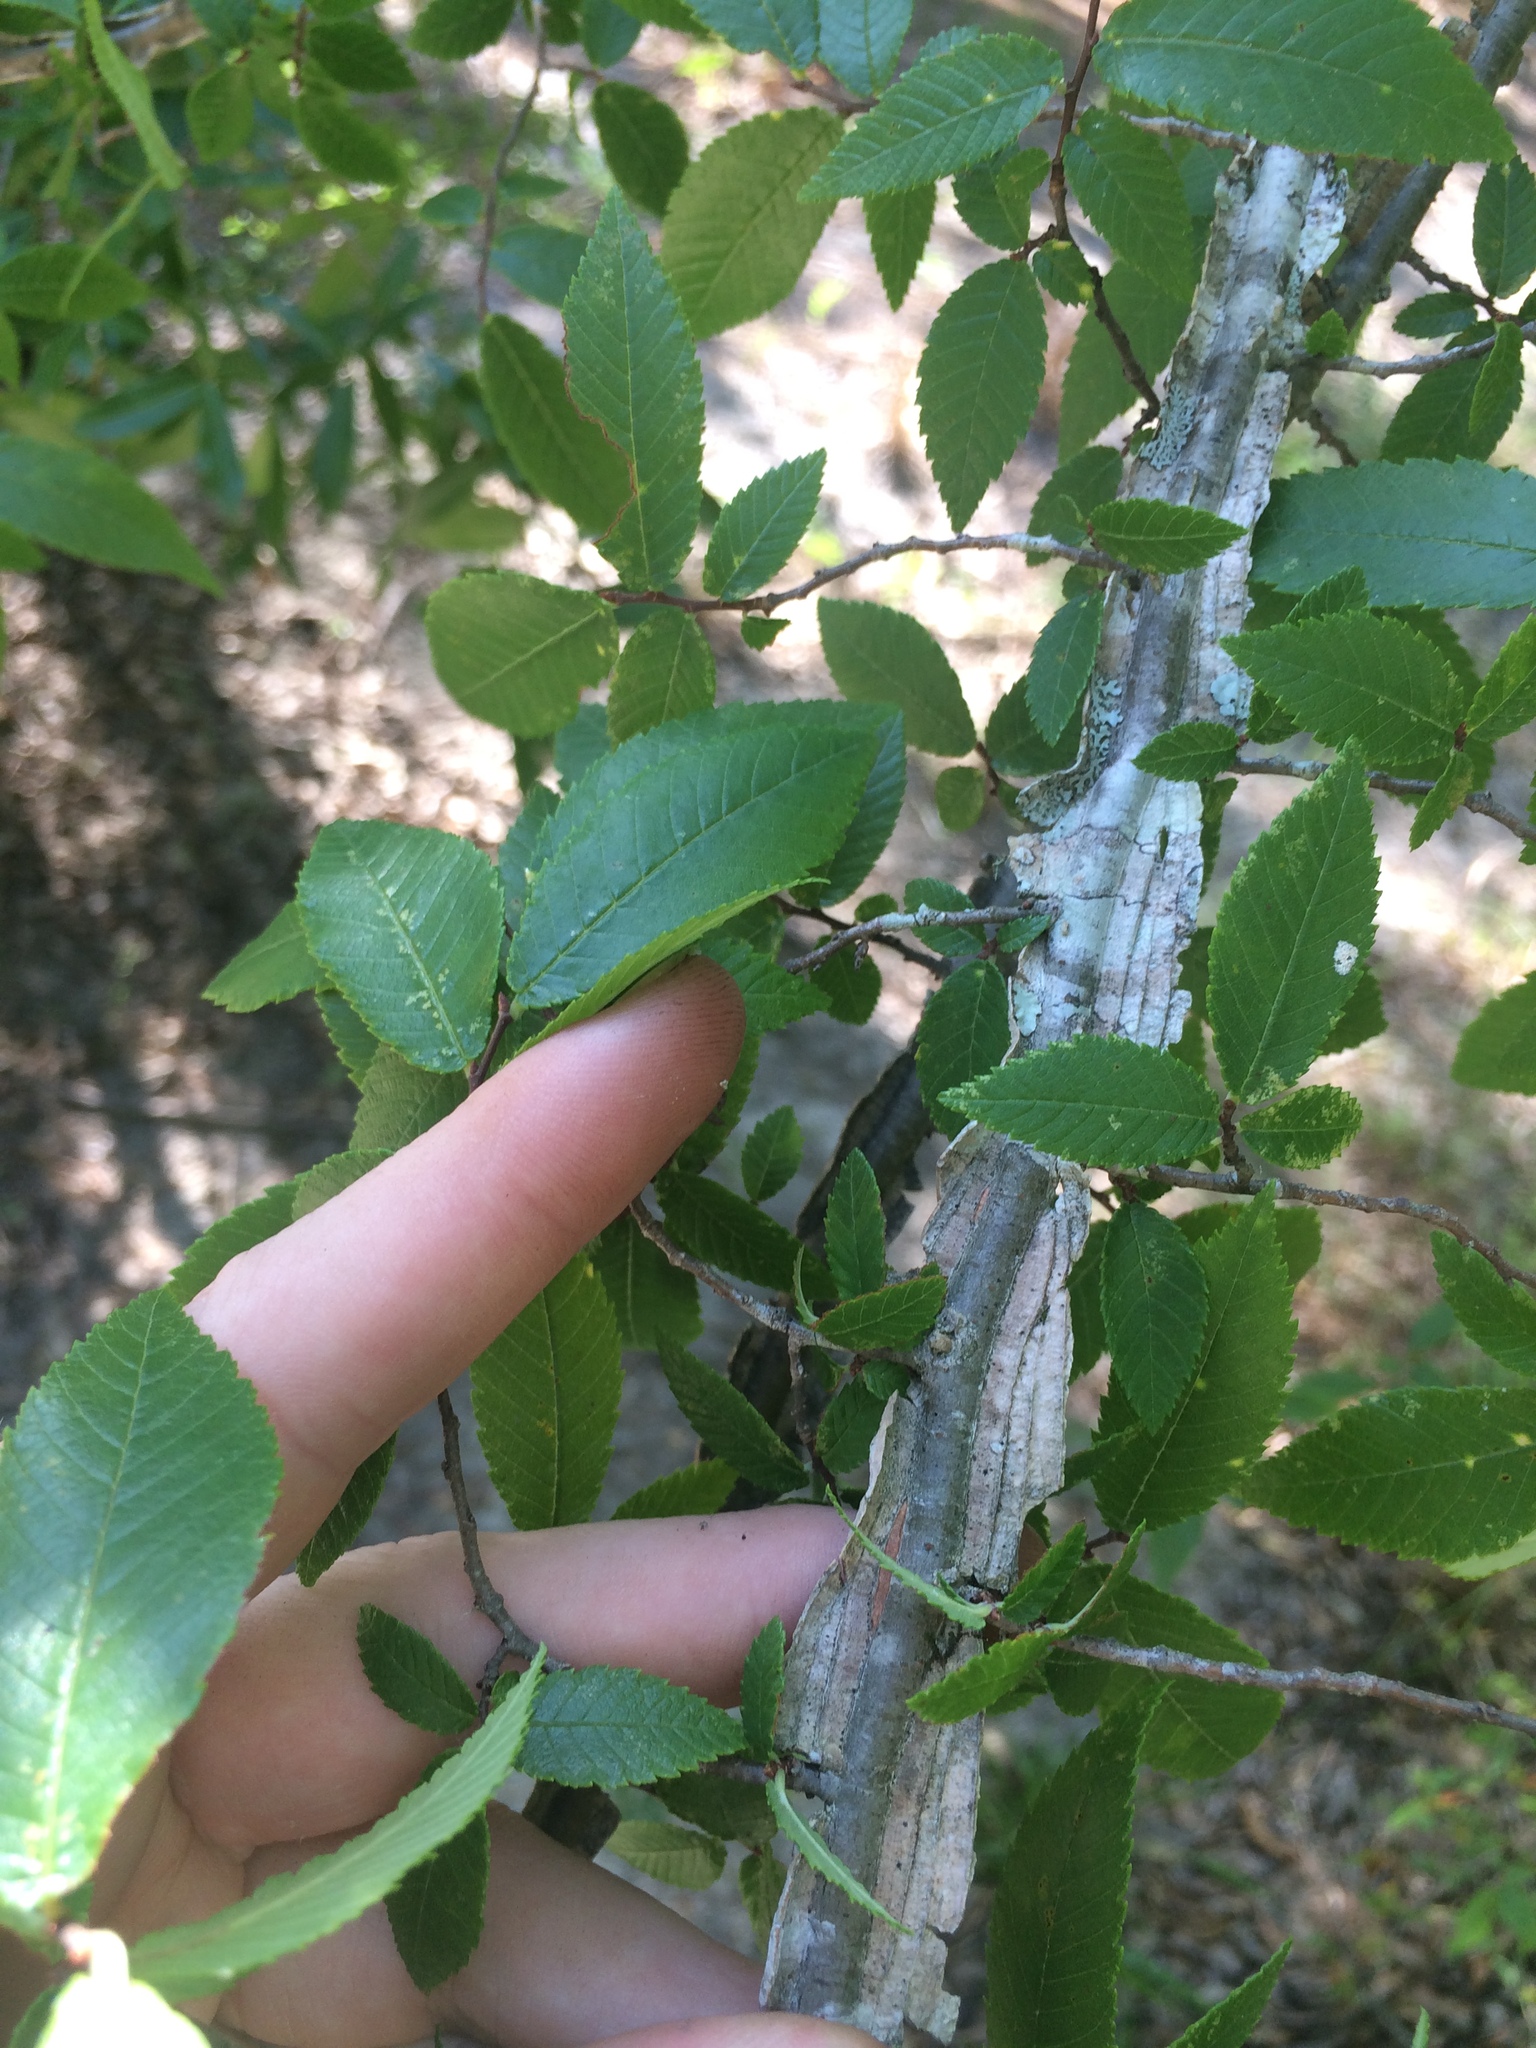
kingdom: Plantae
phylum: Tracheophyta
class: Magnoliopsida
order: Rosales
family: Ulmaceae
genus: Ulmus
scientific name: Ulmus alata
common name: Winged elm
